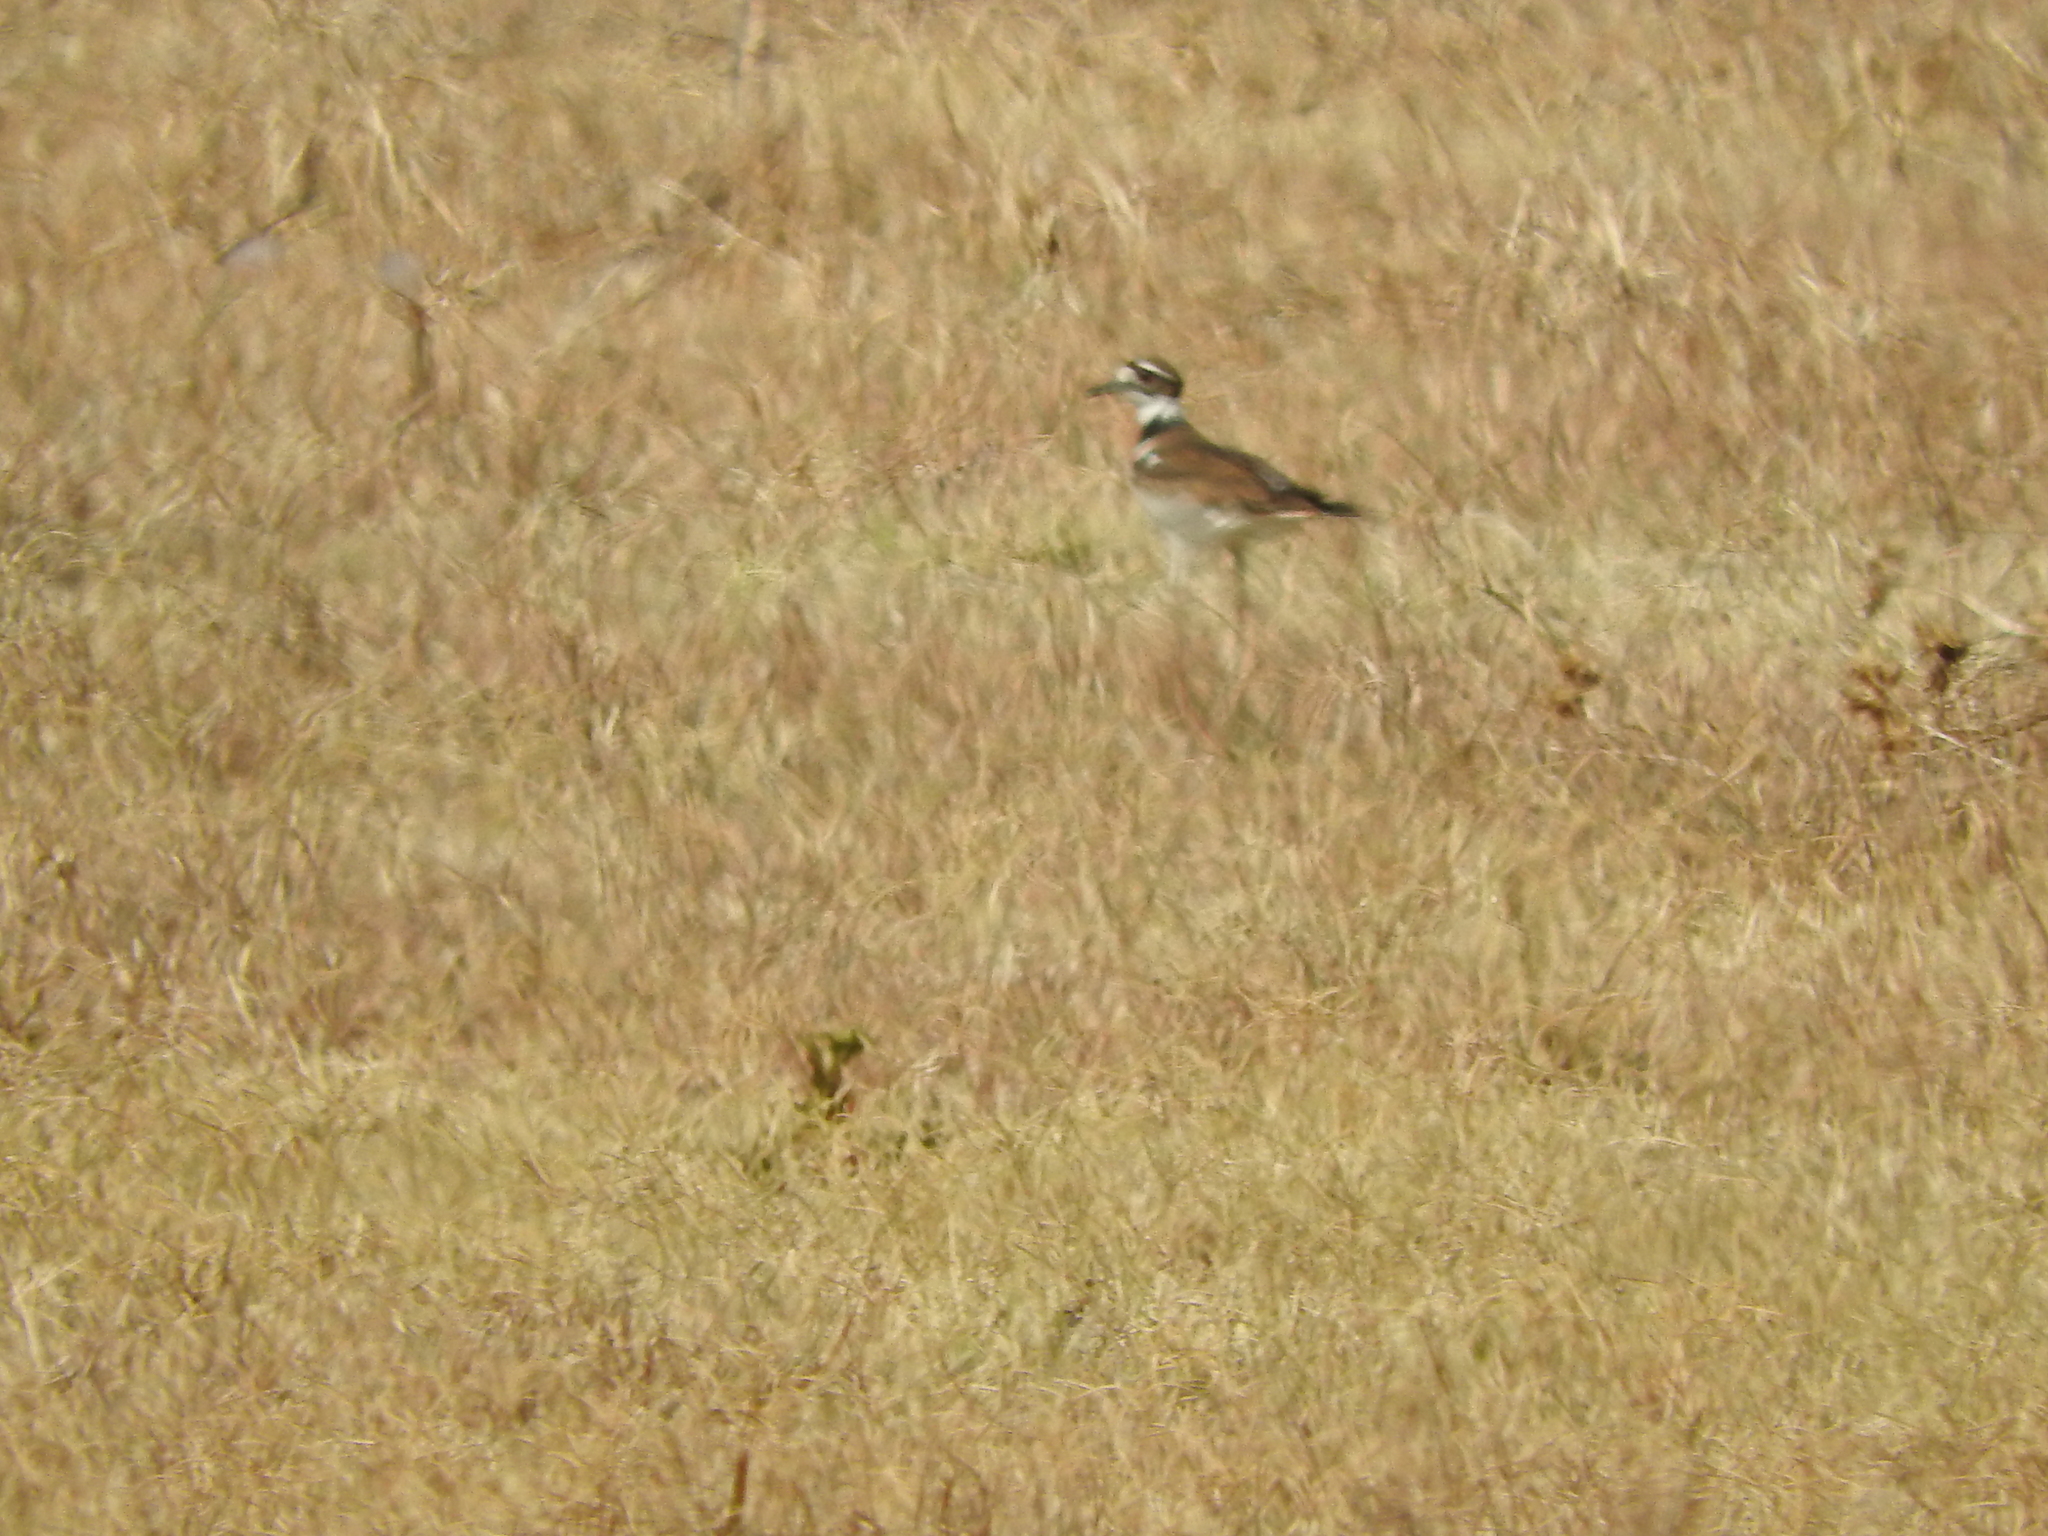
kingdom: Animalia
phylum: Chordata
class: Aves
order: Charadriiformes
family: Charadriidae
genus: Charadrius
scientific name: Charadrius vociferus
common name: Killdeer
